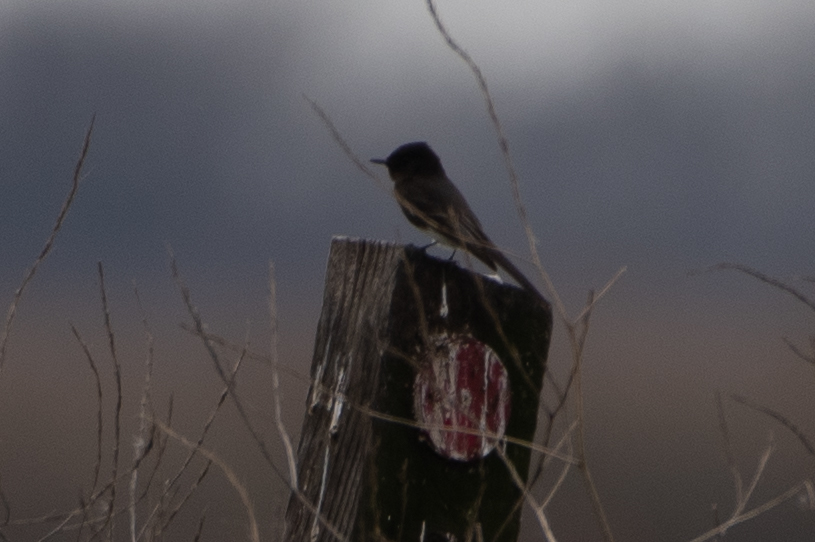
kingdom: Animalia
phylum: Chordata
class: Aves
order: Passeriformes
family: Tyrannidae
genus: Sayornis
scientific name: Sayornis nigricans
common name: Black phoebe
